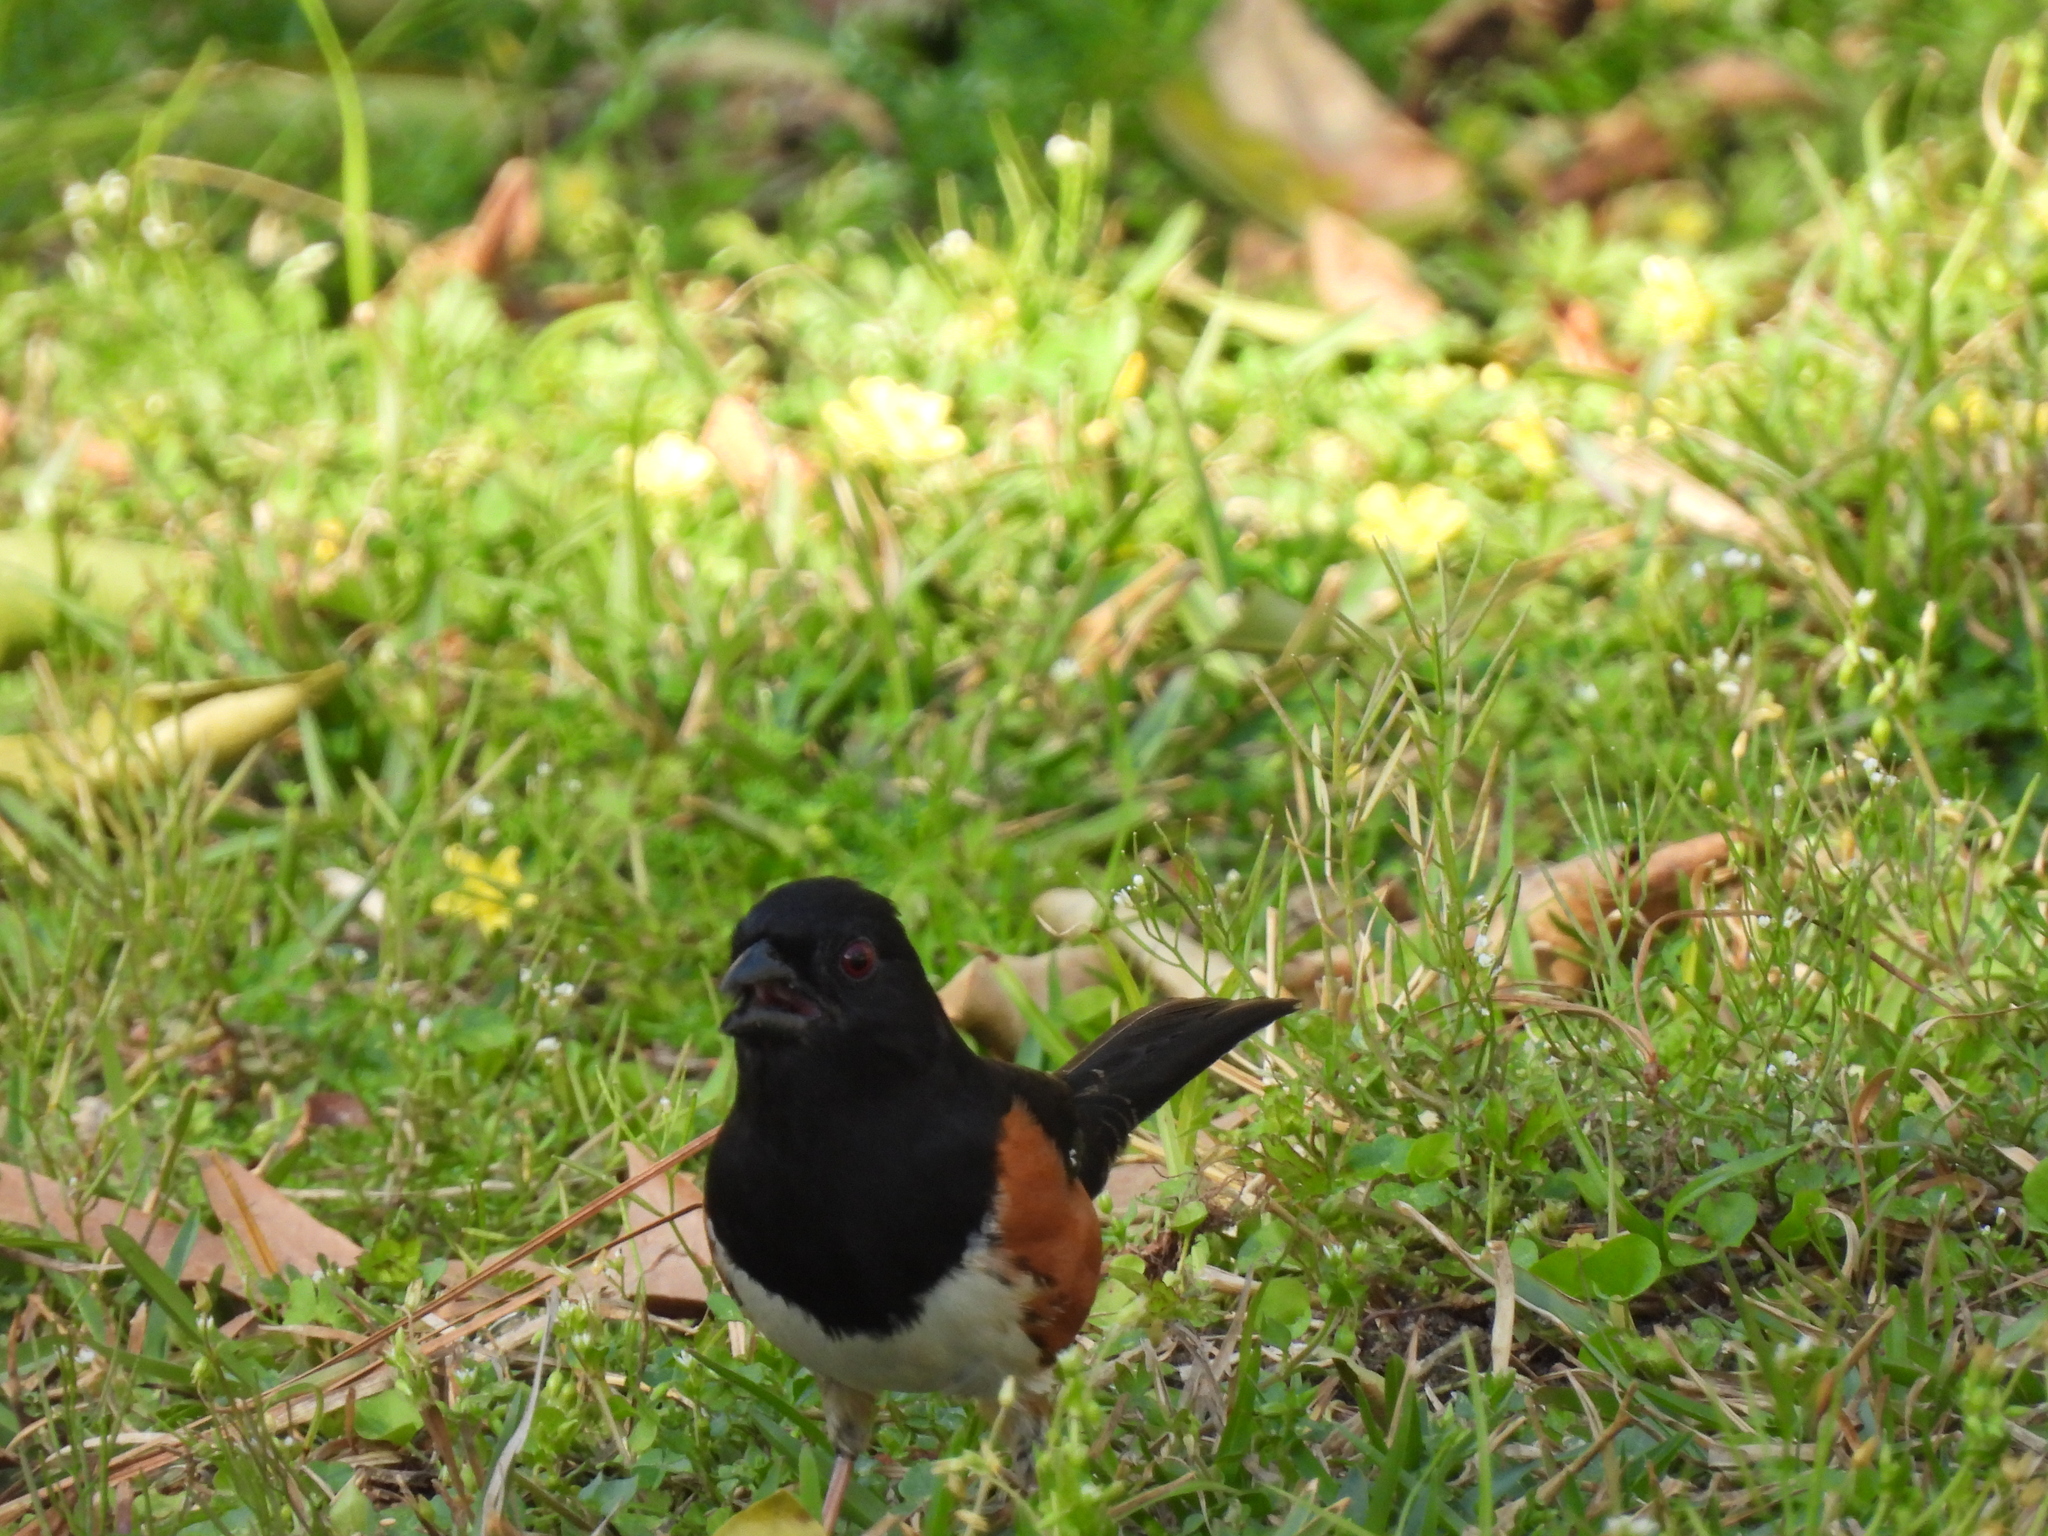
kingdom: Animalia
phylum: Chordata
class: Aves
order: Passeriformes
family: Passerellidae
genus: Pipilo
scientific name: Pipilo erythrophthalmus
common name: Eastern towhee
